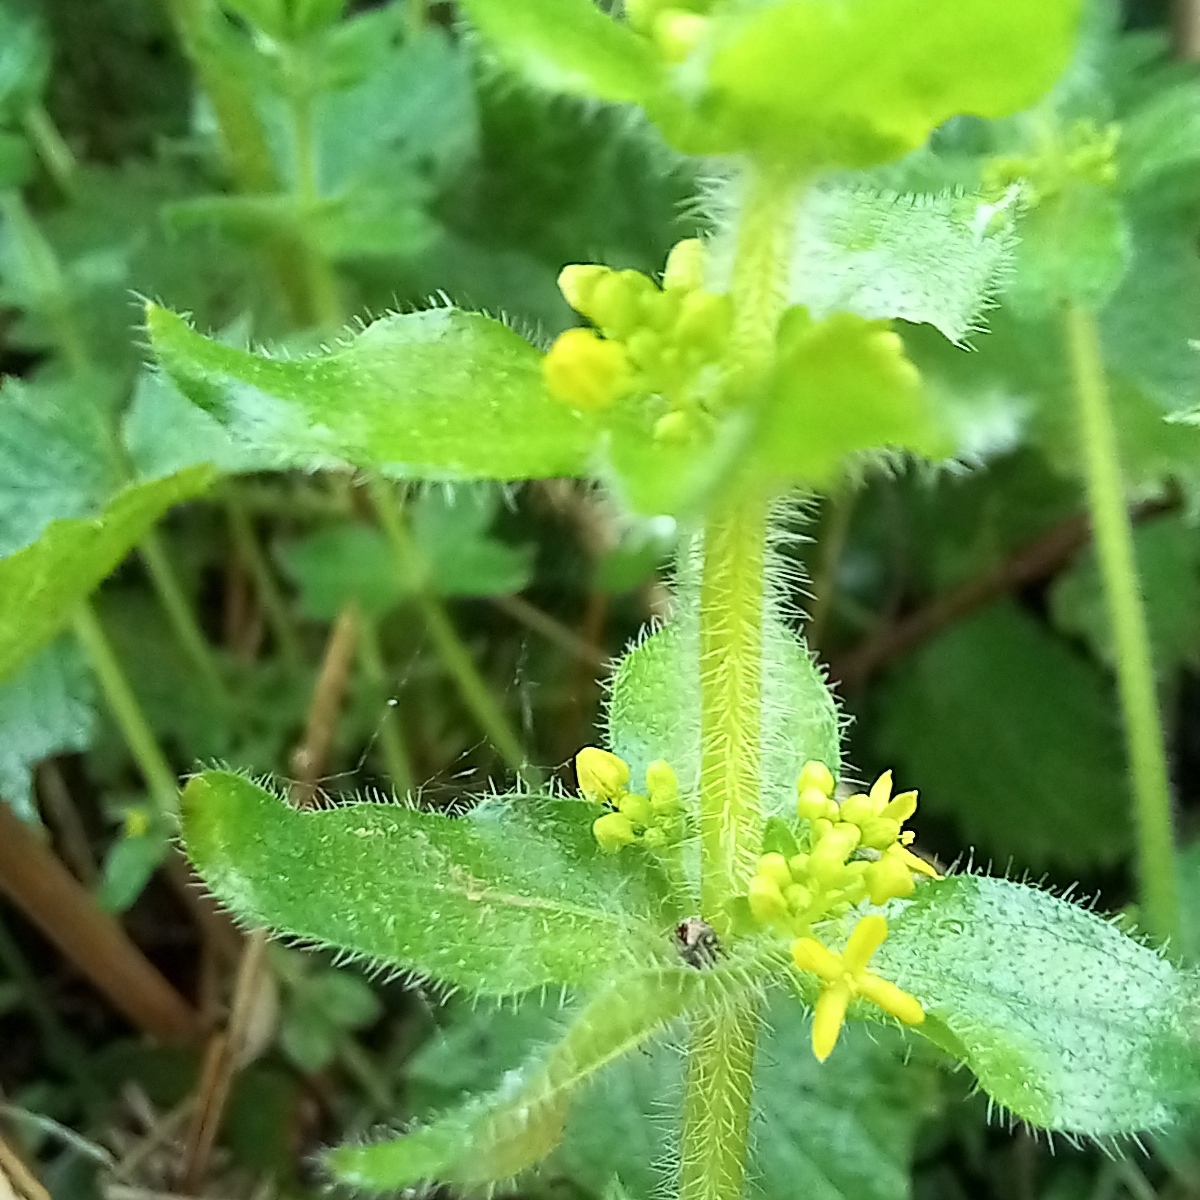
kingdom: Plantae
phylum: Tracheophyta
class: Magnoliopsida
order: Gentianales
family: Rubiaceae
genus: Cruciata
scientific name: Cruciata laevipes
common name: Crosswort
